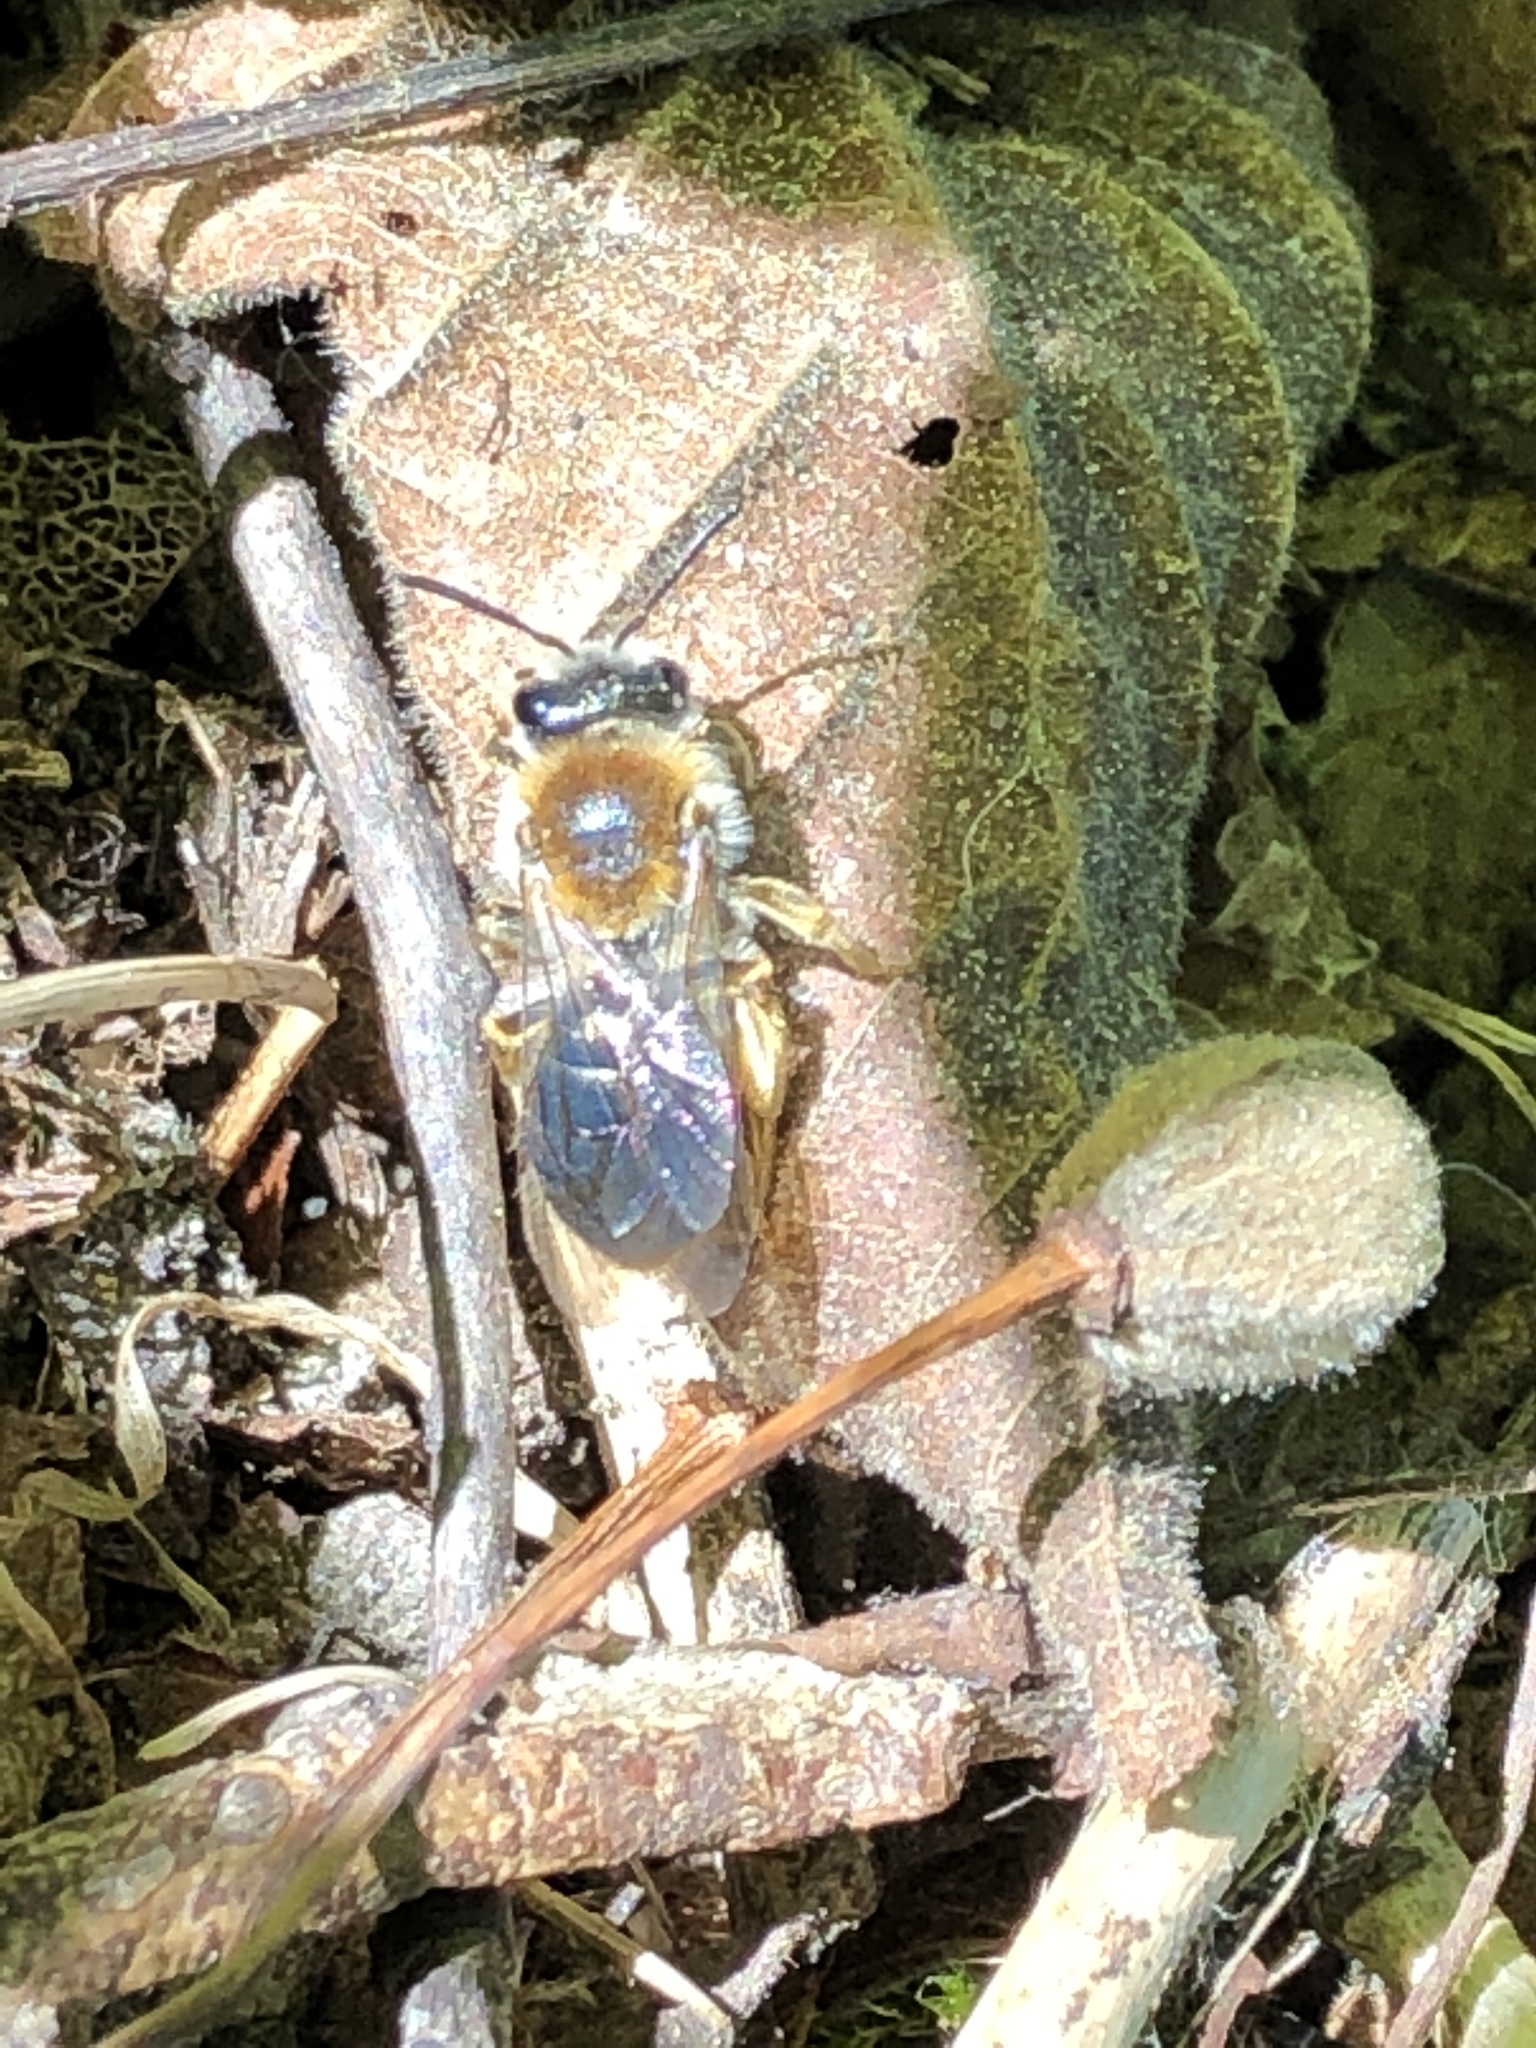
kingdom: Animalia
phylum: Arthropoda
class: Insecta
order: Hymenoptera
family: Andrenidae
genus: Andrena
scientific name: Andrena haemorrhoa
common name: Early mining bee
